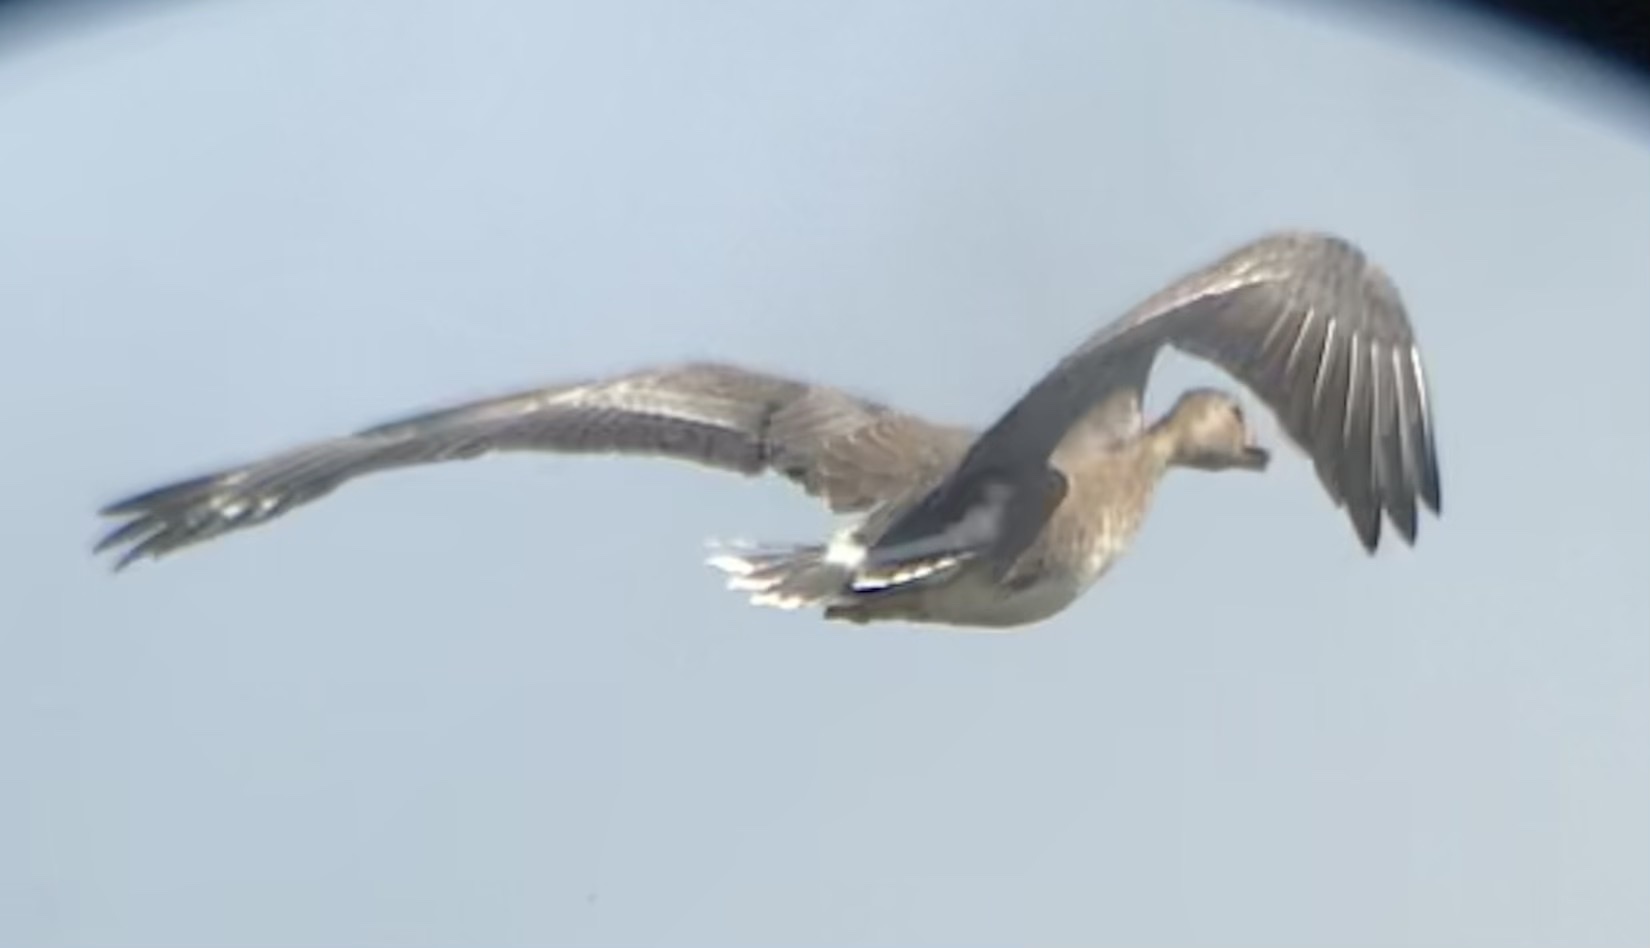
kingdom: Animalia
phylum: Chordata
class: Aves
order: Anseriformes
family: Anatidae
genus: Anser
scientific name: Anser albifrons
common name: Greater white-fronted goose
